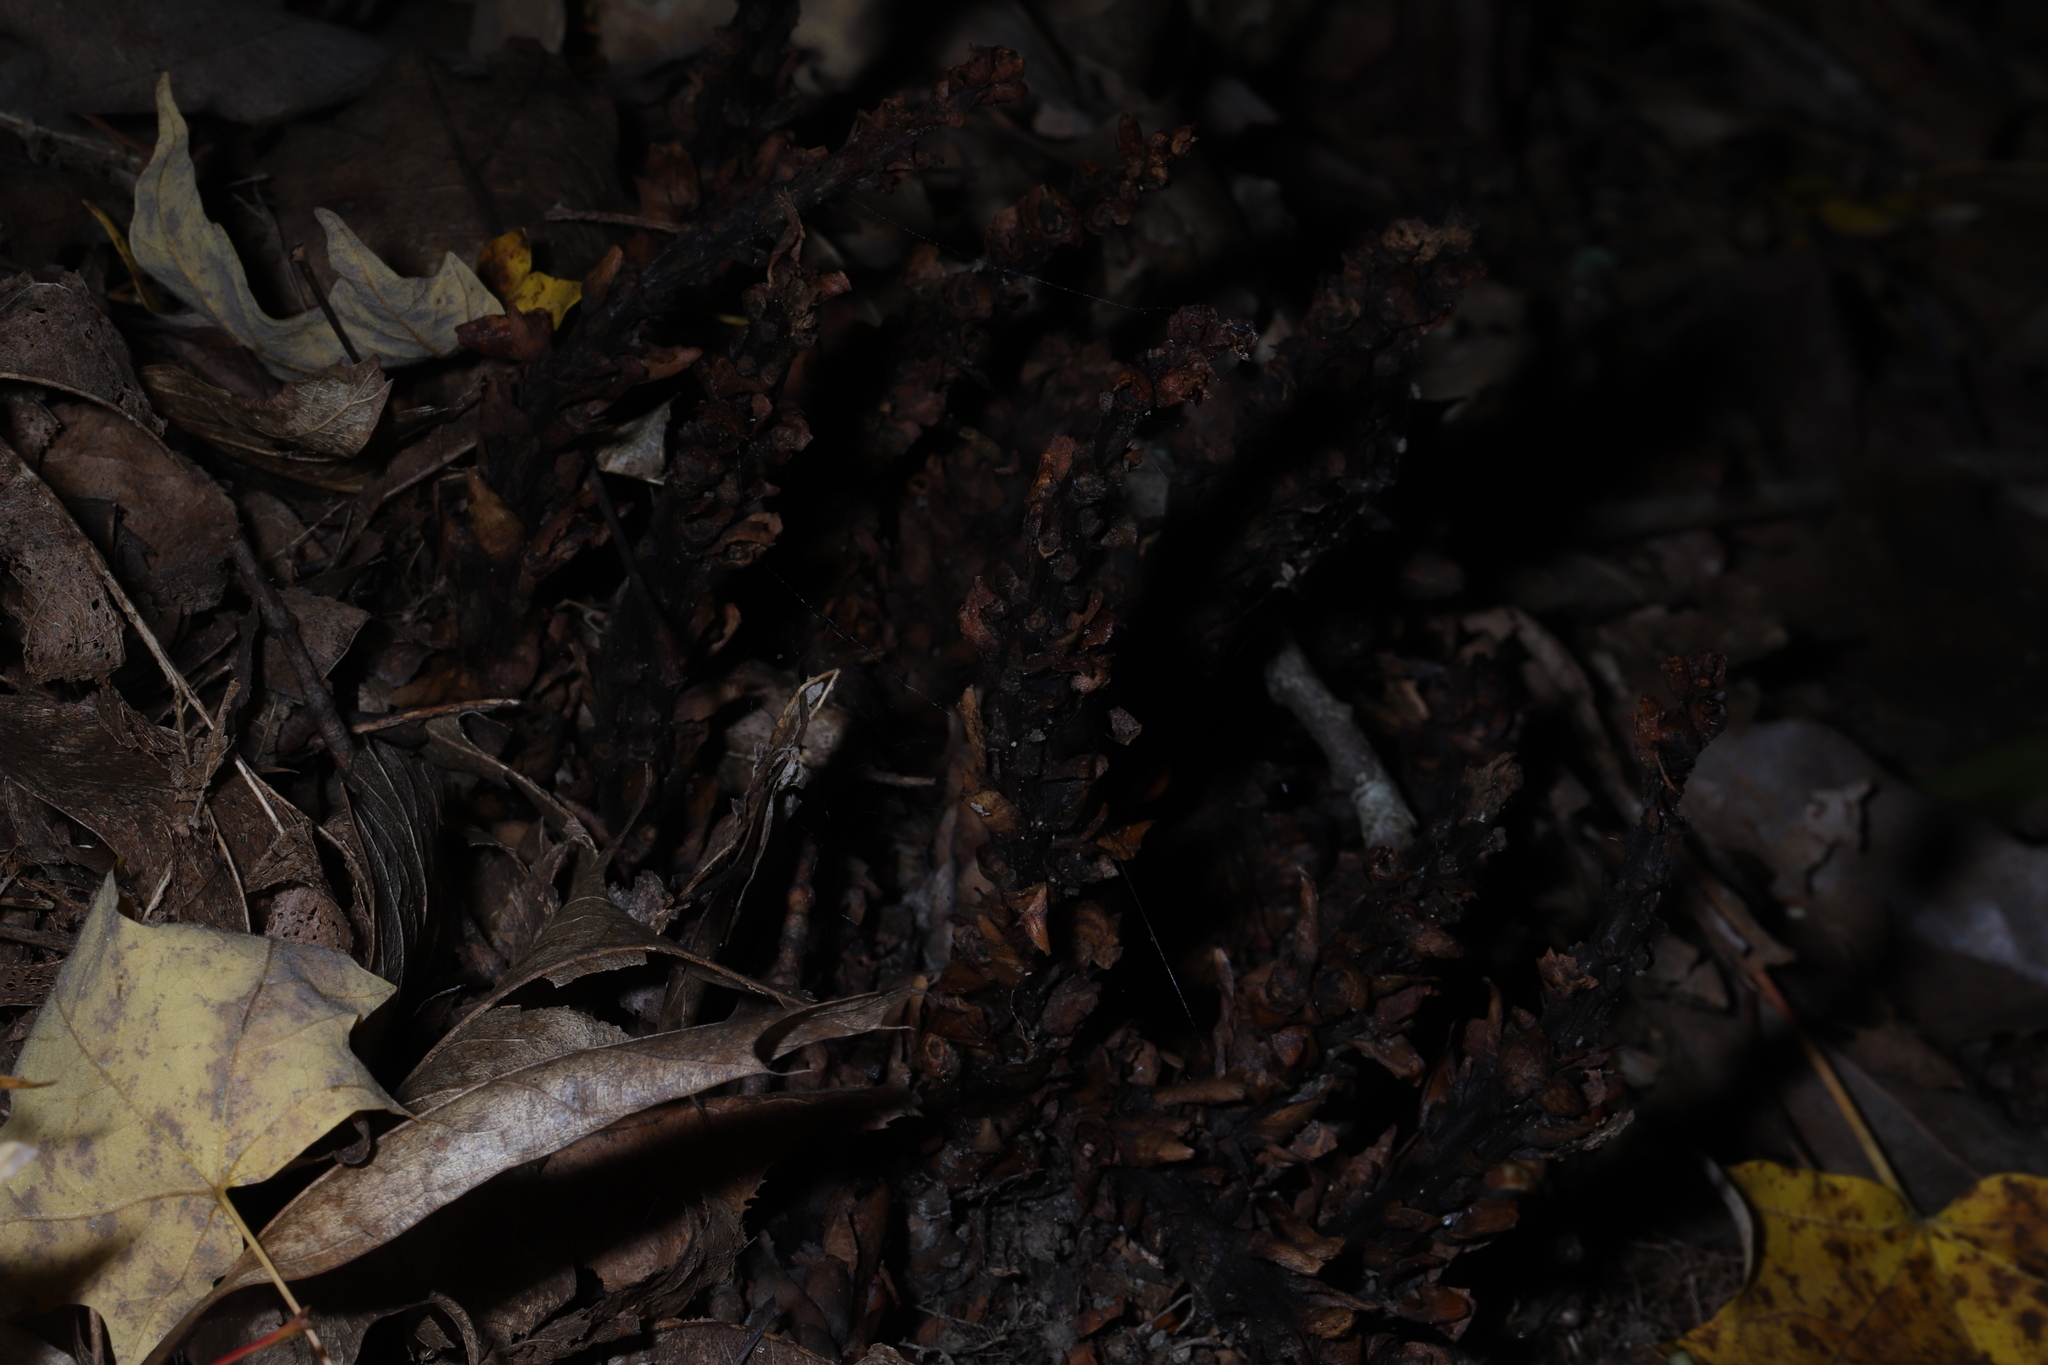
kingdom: Plantae
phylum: Tracheophyta
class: Magnoliopsida
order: Lamiales
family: Orobanchaceae
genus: Conopholis
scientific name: Conopholis americana
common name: American cancer-root
